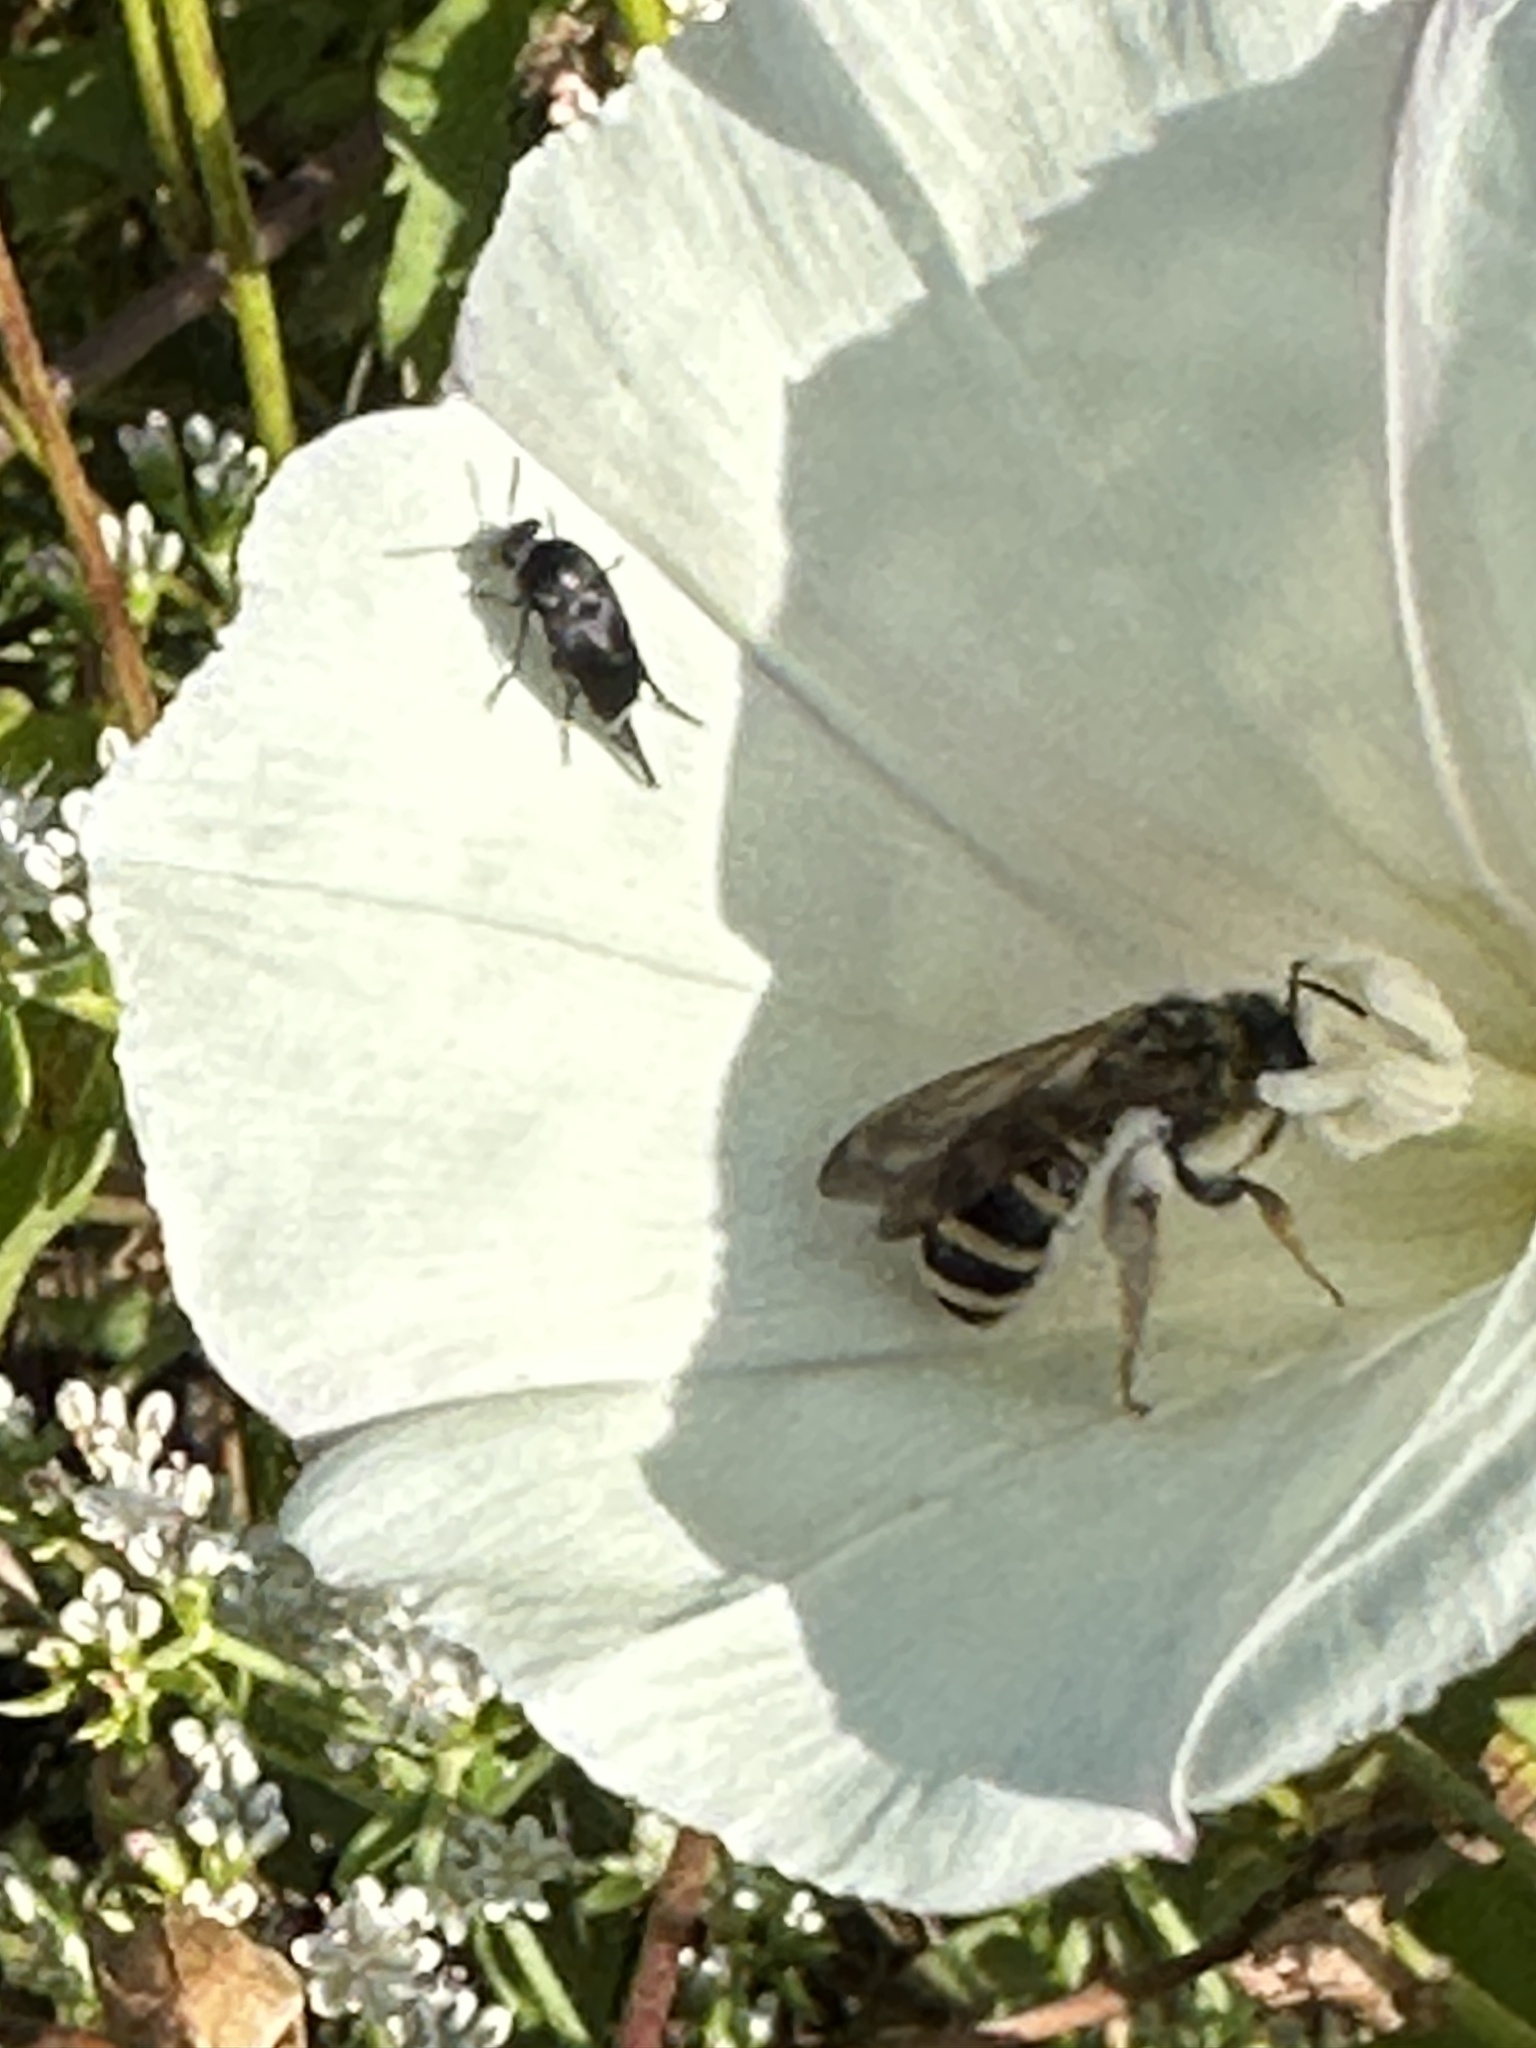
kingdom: Animalia
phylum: Arthropoda
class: Insecta
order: Hymenoptera
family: Halictidae
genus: Halictus
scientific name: Halictus farinosus
